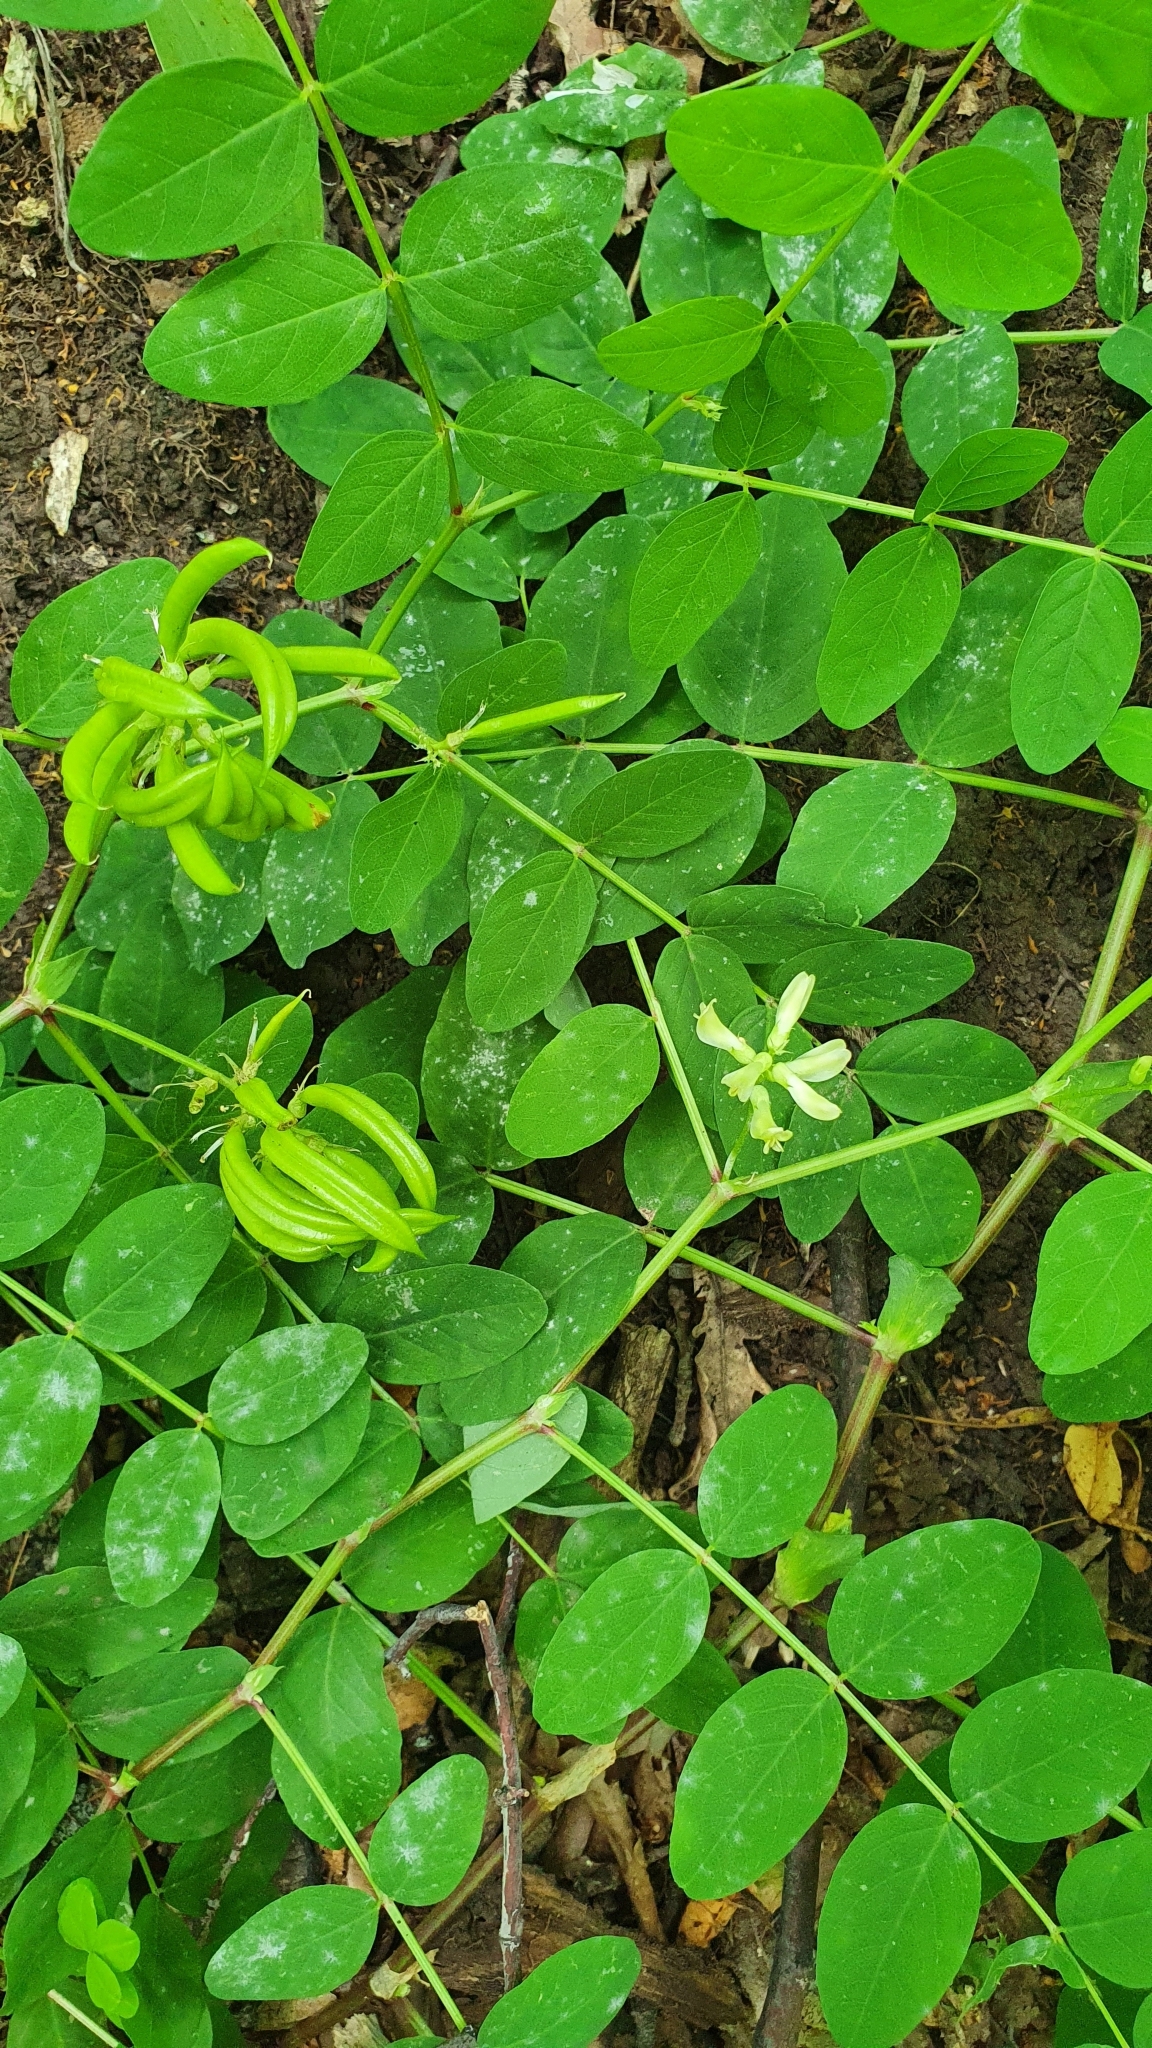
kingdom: Plantae
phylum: Tracheophyta
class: Magnoliopsida
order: Fabales
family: Fabaceae
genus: Astragalus
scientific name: Astragalus glycyphyllos
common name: Wild liquorice
